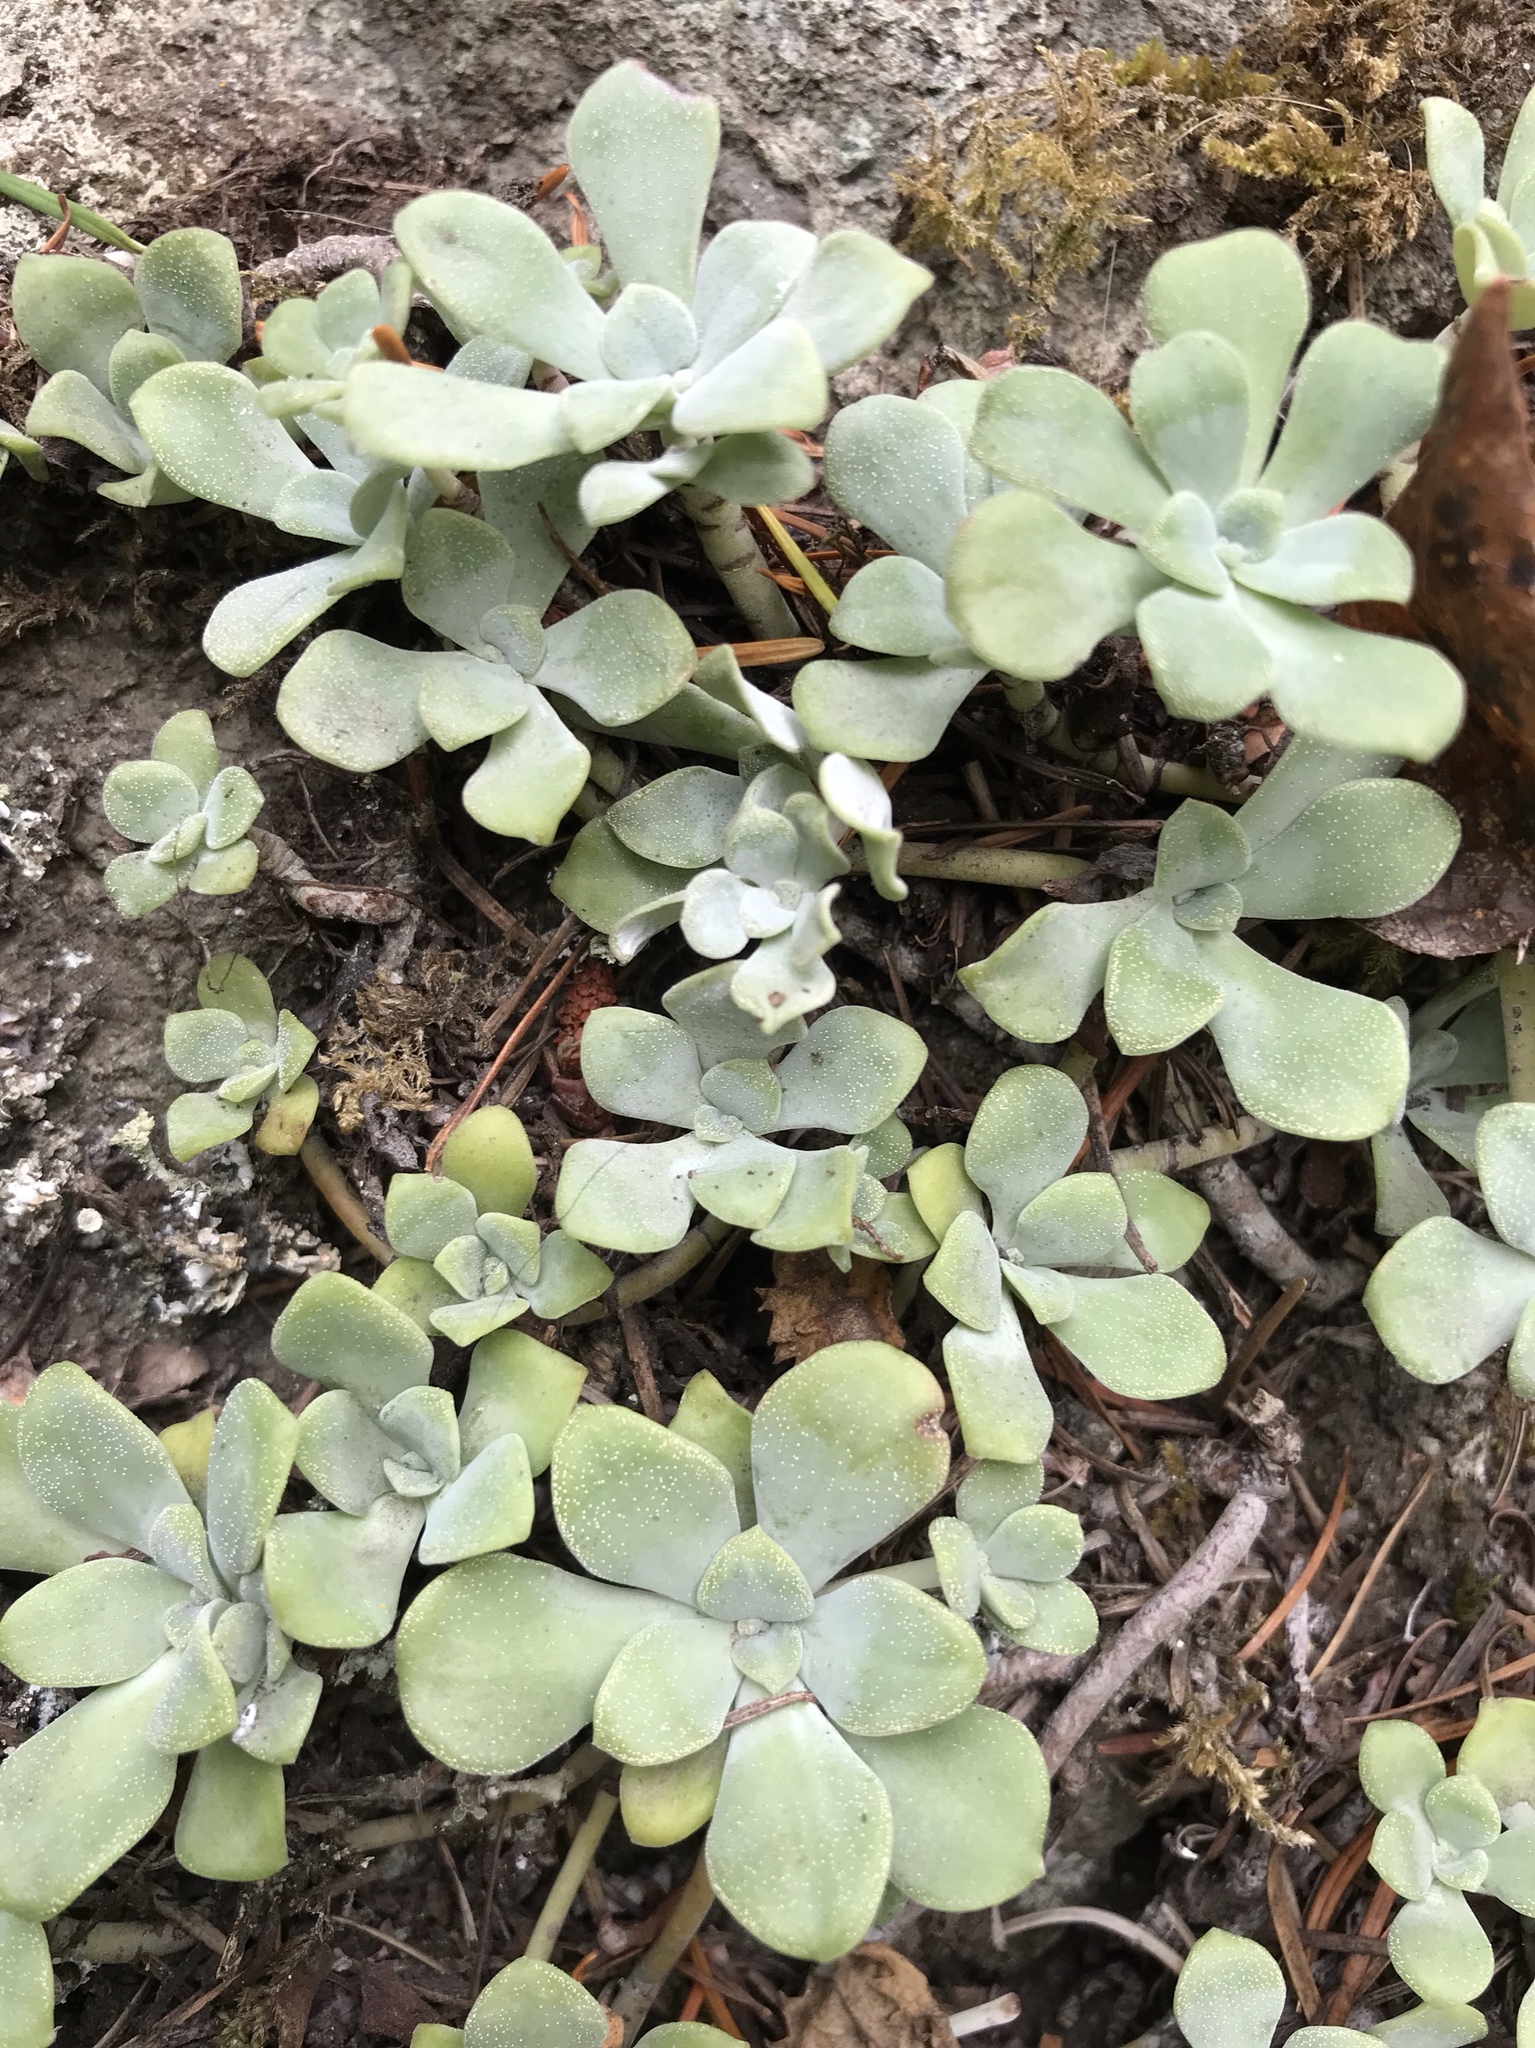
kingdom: Plantae
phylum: Tracheophyta
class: Magnoliopsida
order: Saxifragales
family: Crassulaceae
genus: Sedum
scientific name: Sedum spathulifolium
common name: Colorado stonecrop
